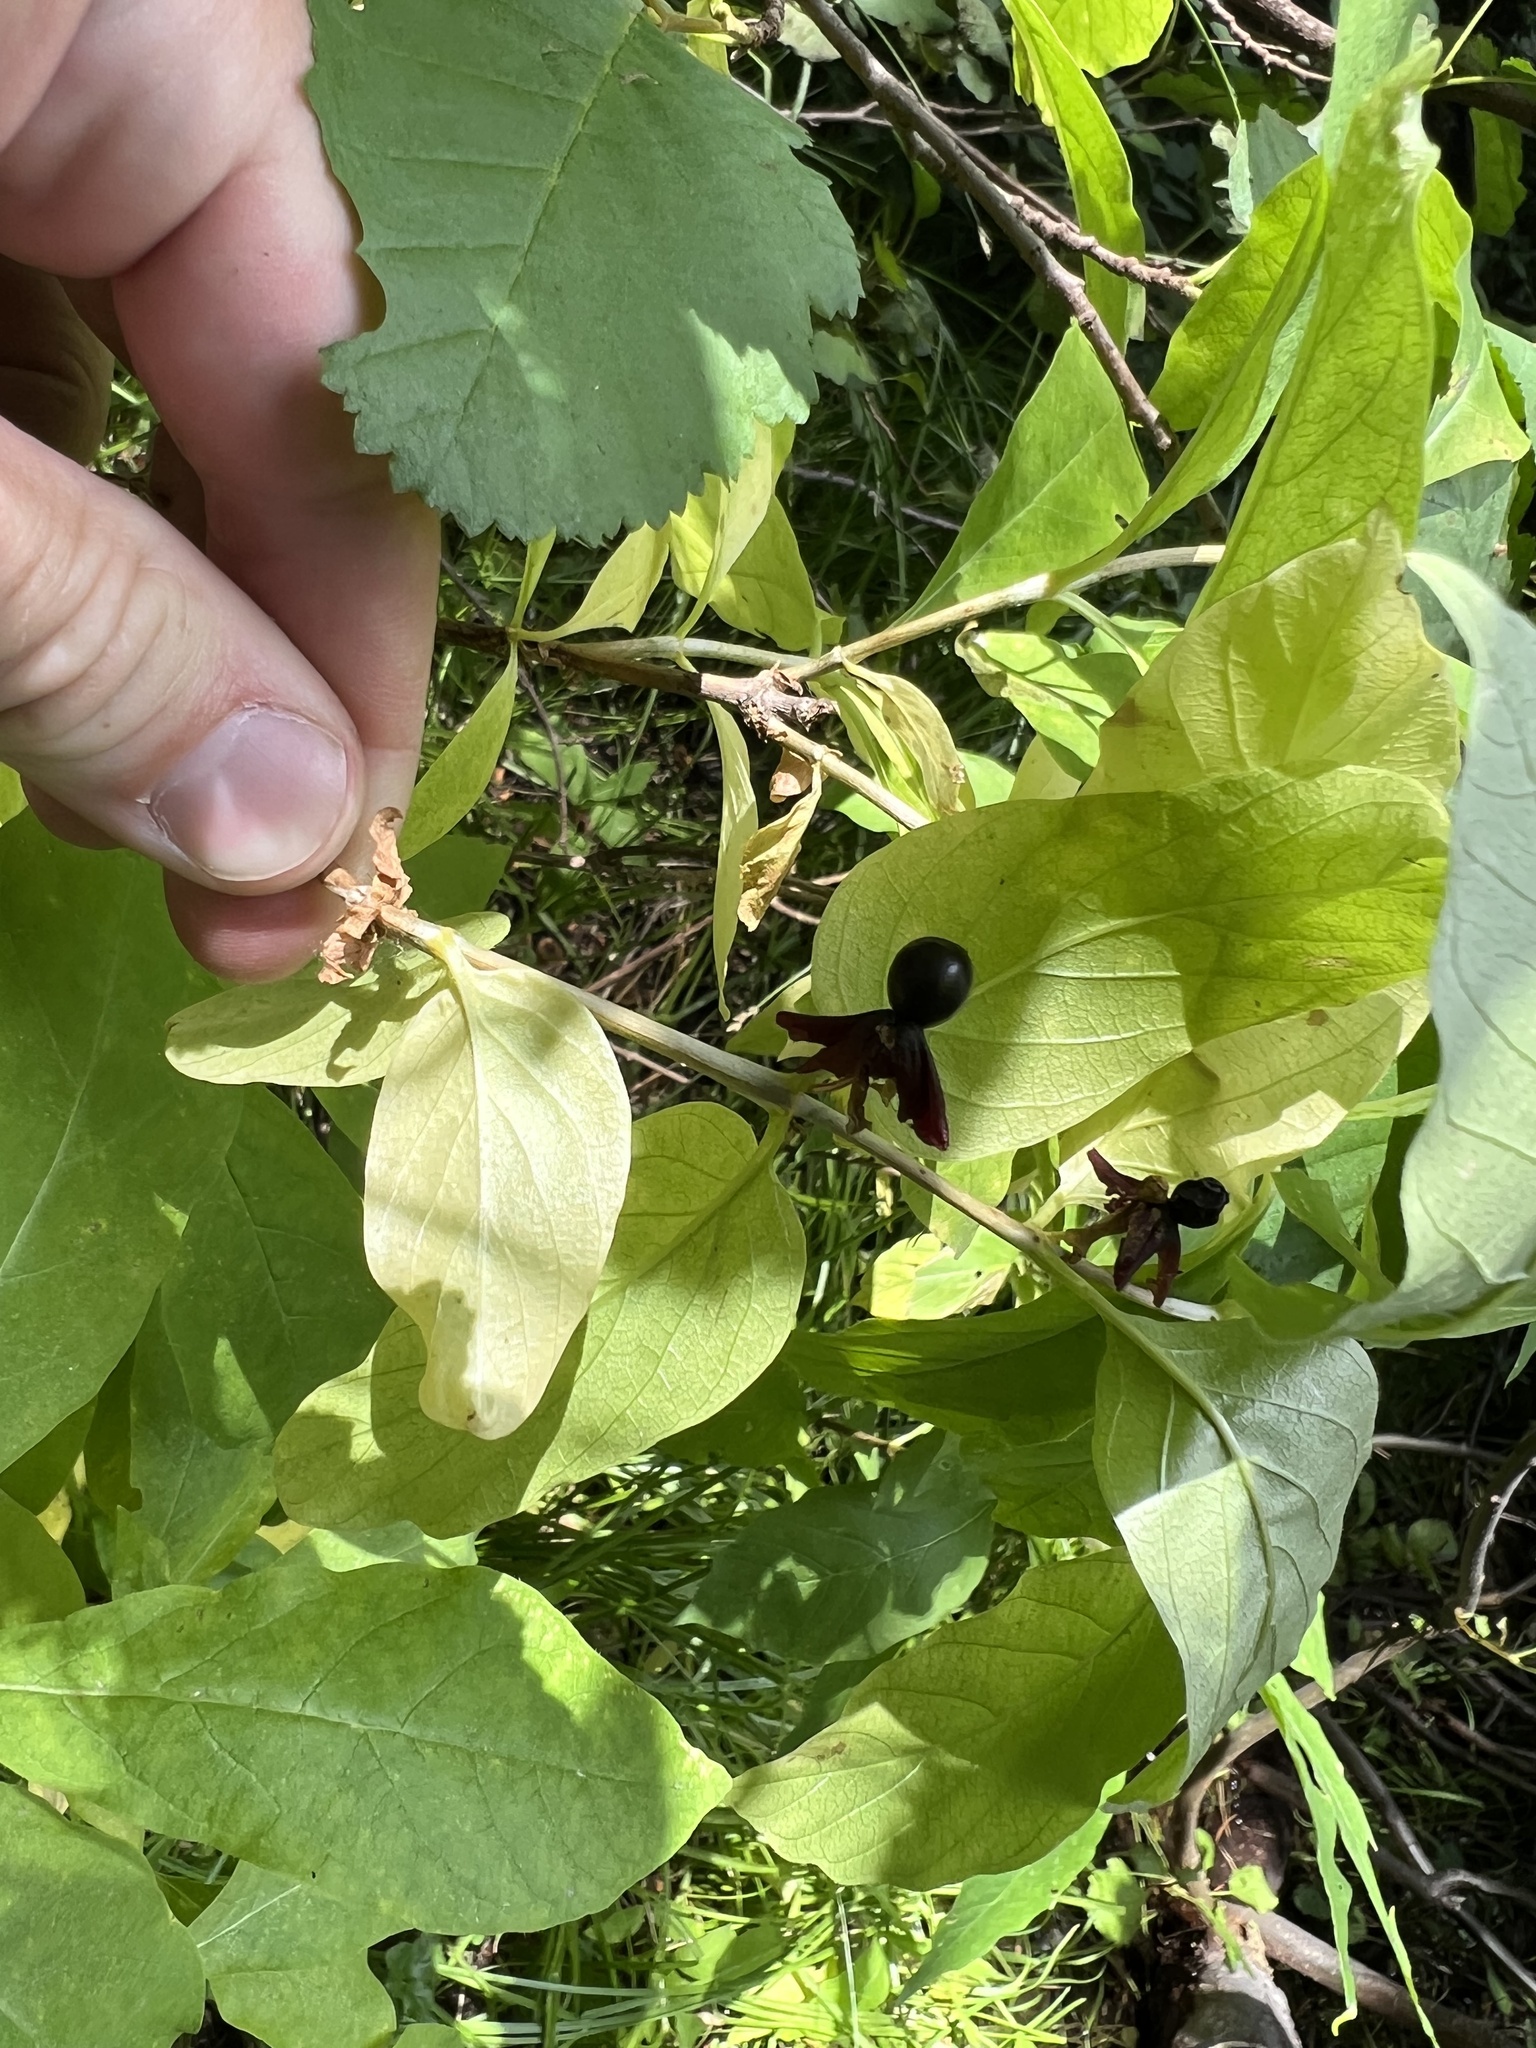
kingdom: Plantae
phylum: Tracheophyta
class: Magnoliopsida
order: Dipsacales
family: Caprifoliaceae
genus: Lonicera
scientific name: Lonicera involucrata
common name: Californian honeysuckle
